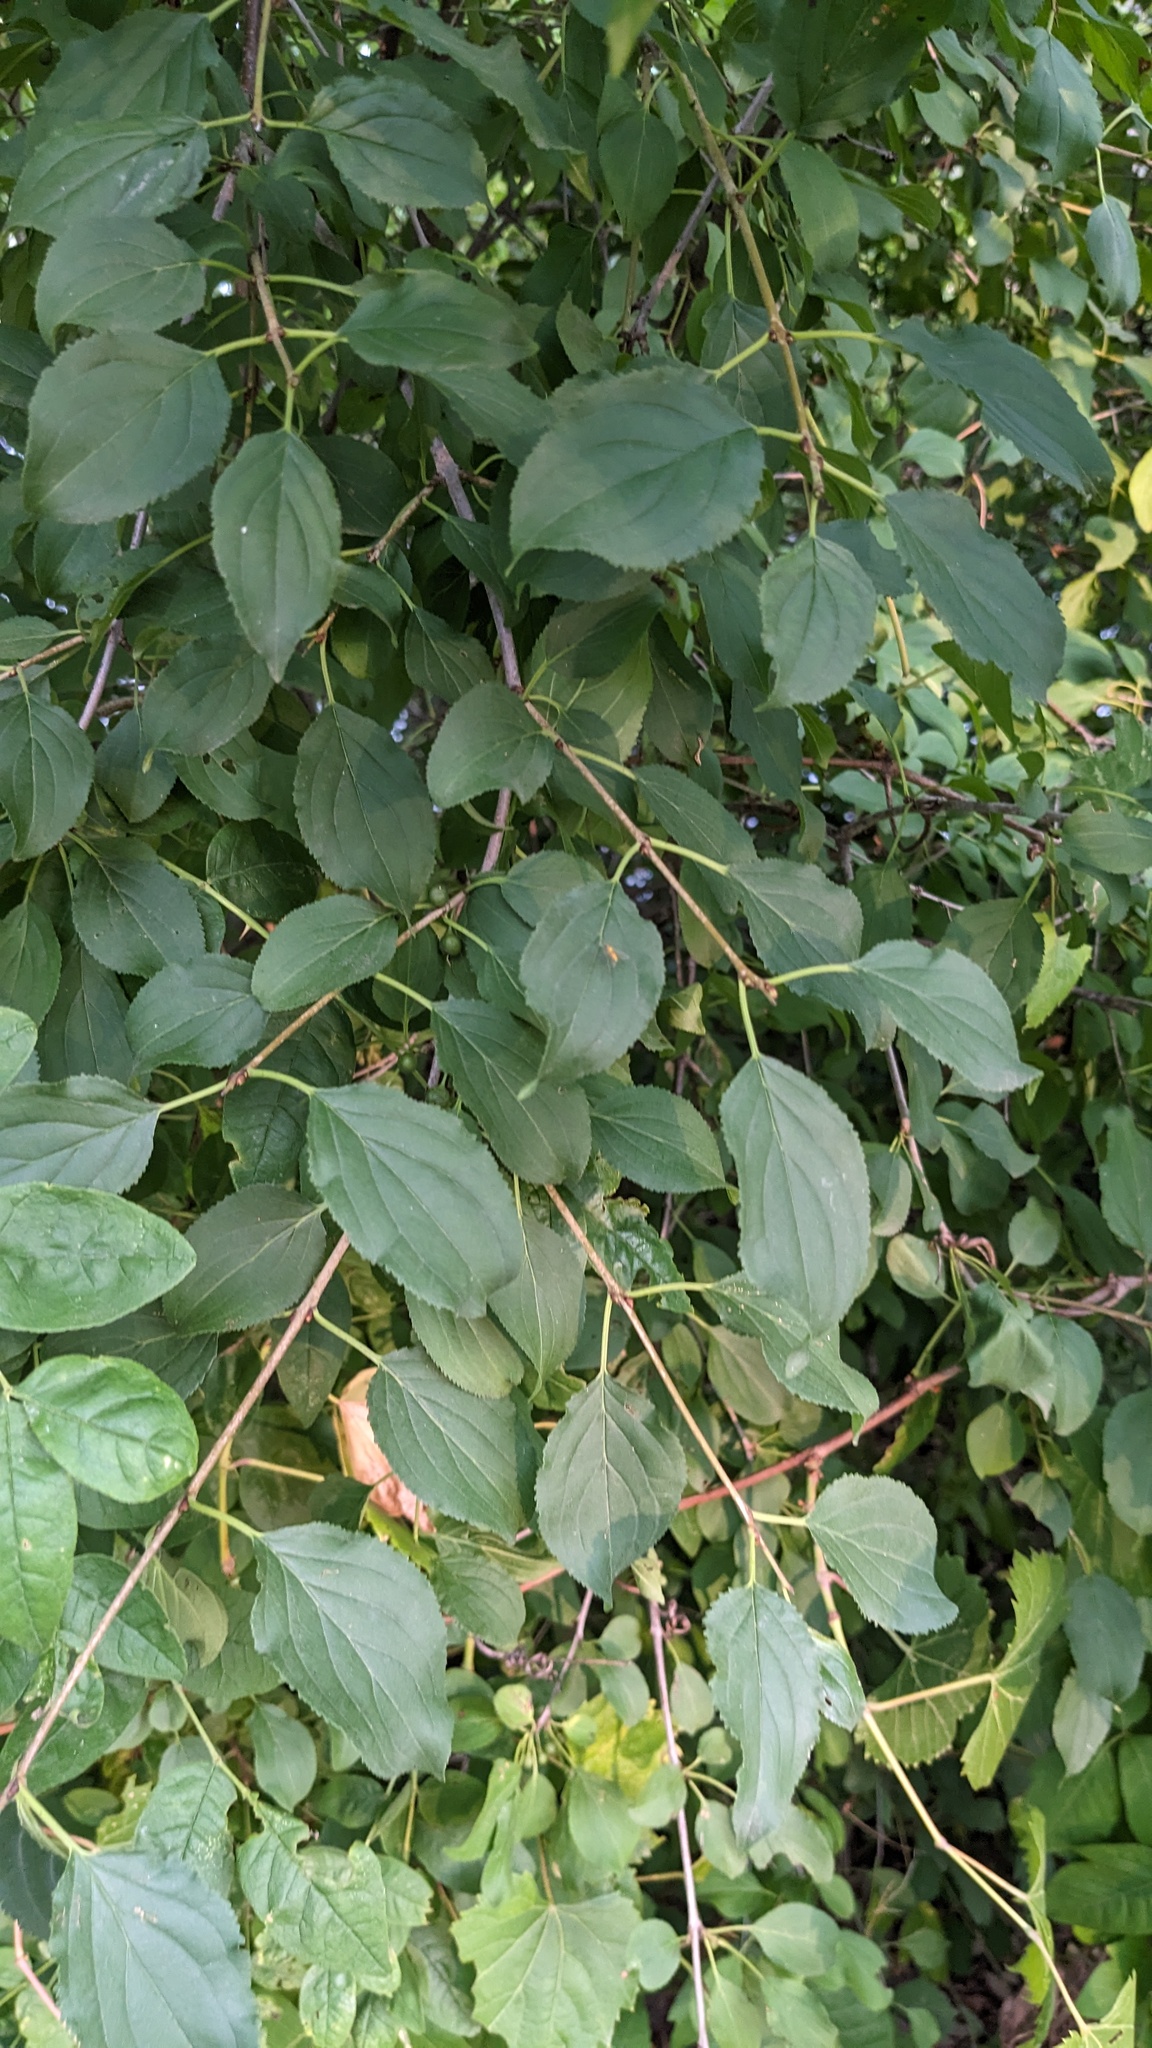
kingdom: Plantae
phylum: Tracheophyta
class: Magnoliopsida
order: Rosales
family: Rhamnaceae
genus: Rhamnus
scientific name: Rhamnus cathartica
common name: Common buckthorn
